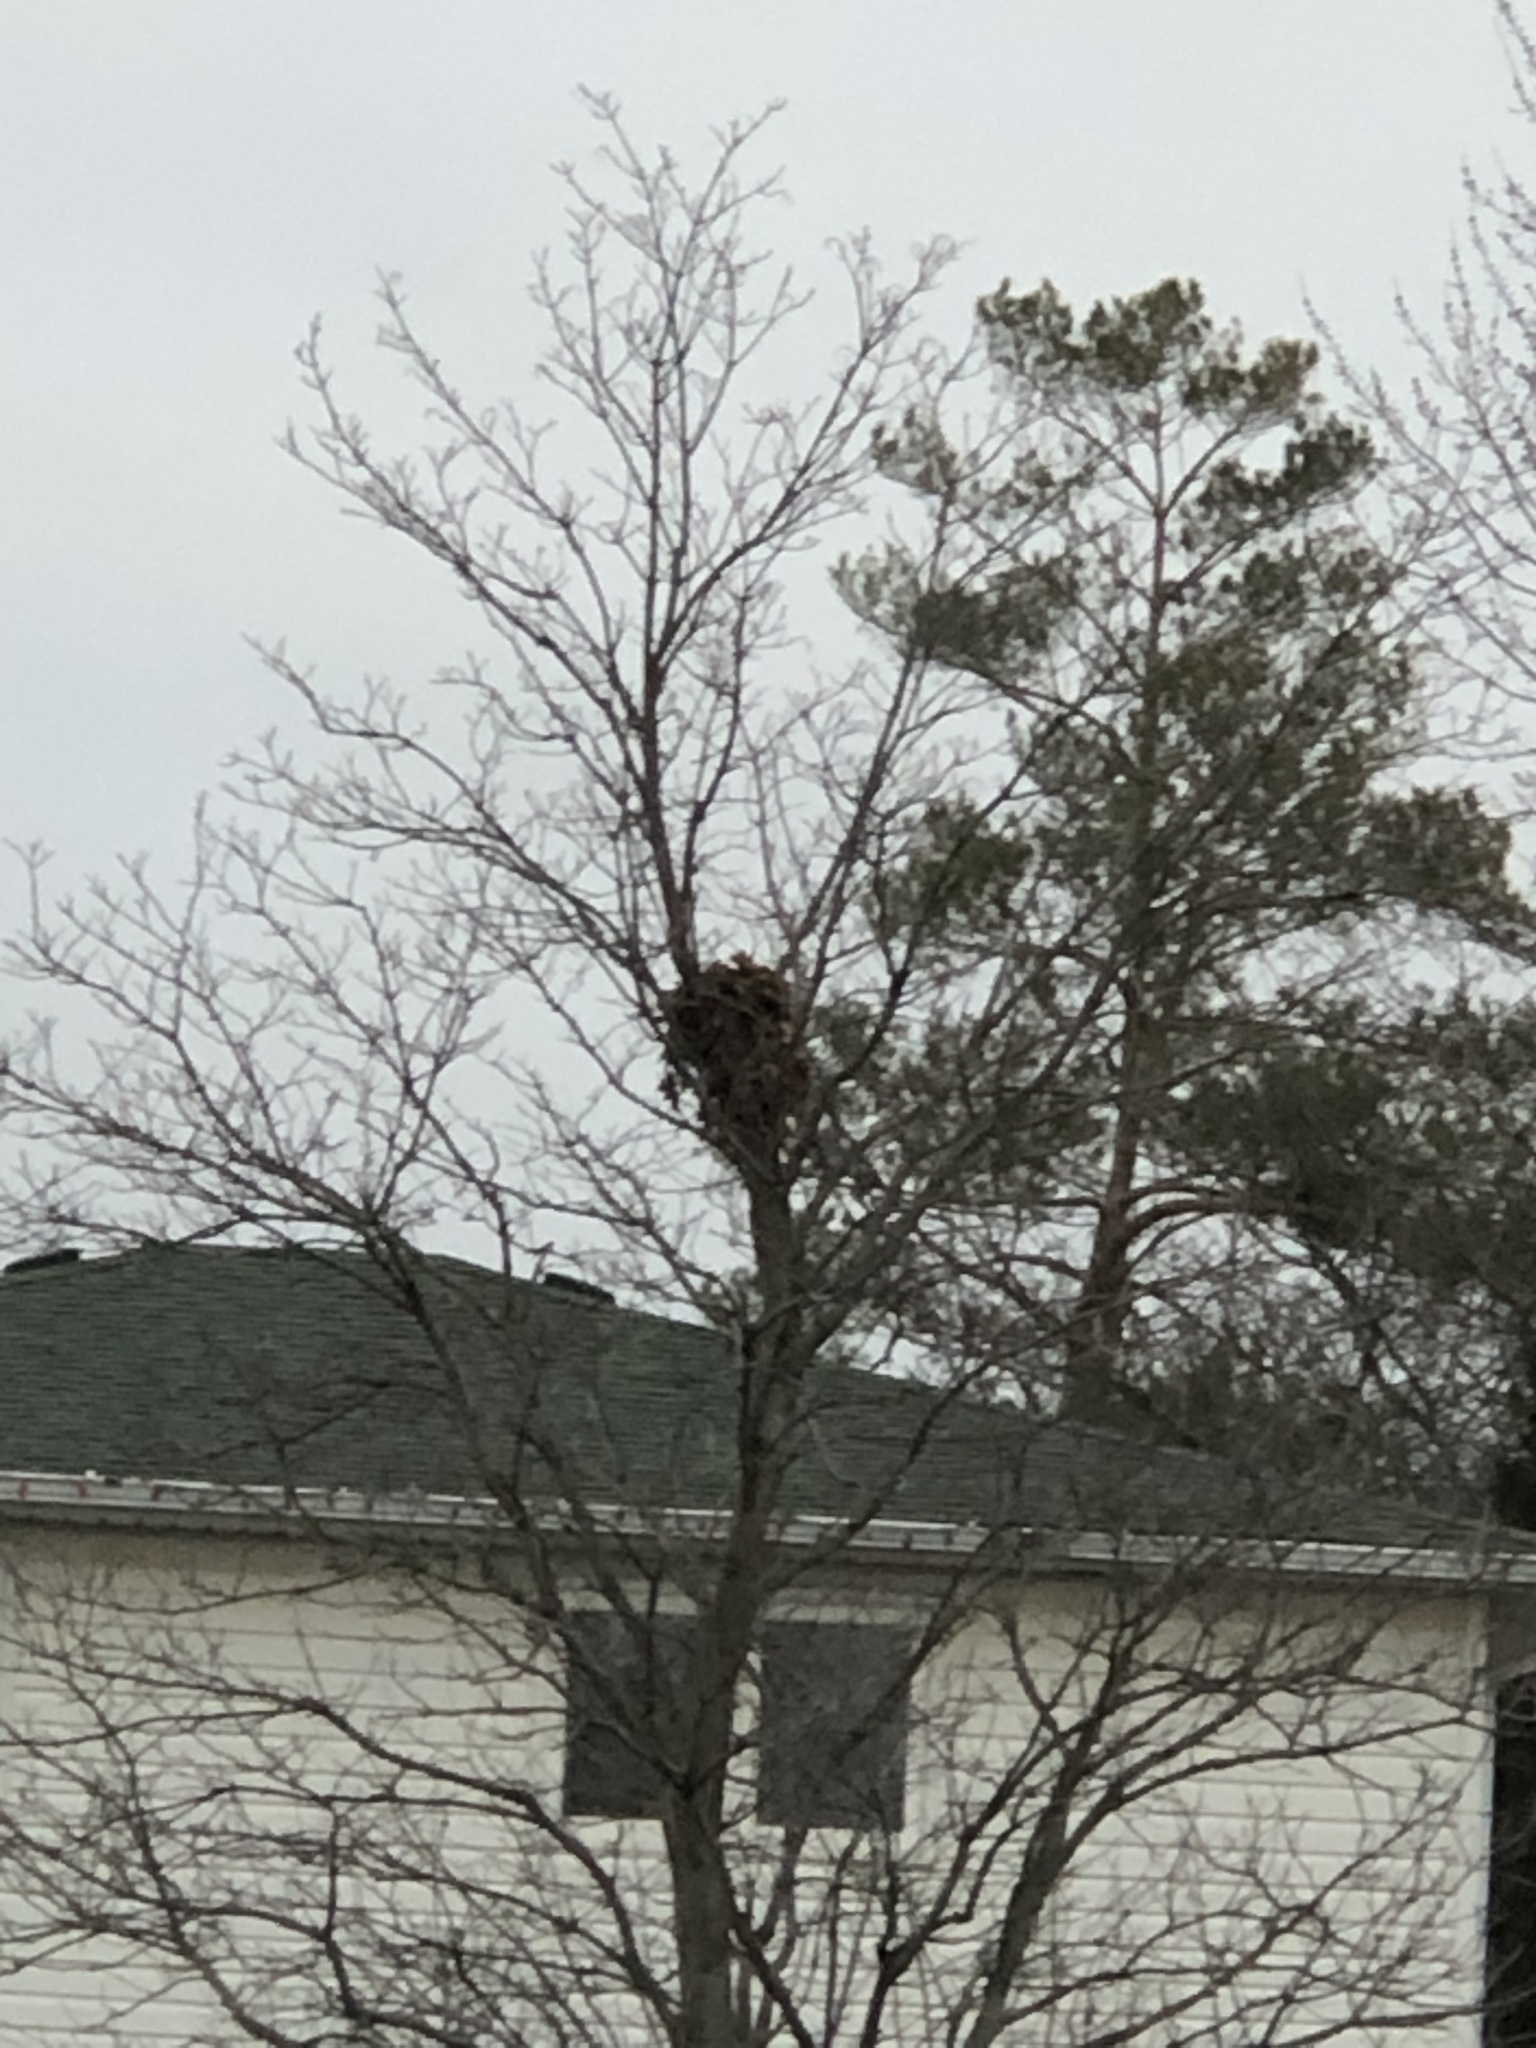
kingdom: Animalia
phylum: Chordata
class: Mammalia
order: Rodentia
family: Sciuridae
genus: Sciurus
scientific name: Sciurus carolinensis
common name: Eastern gray squirrel
